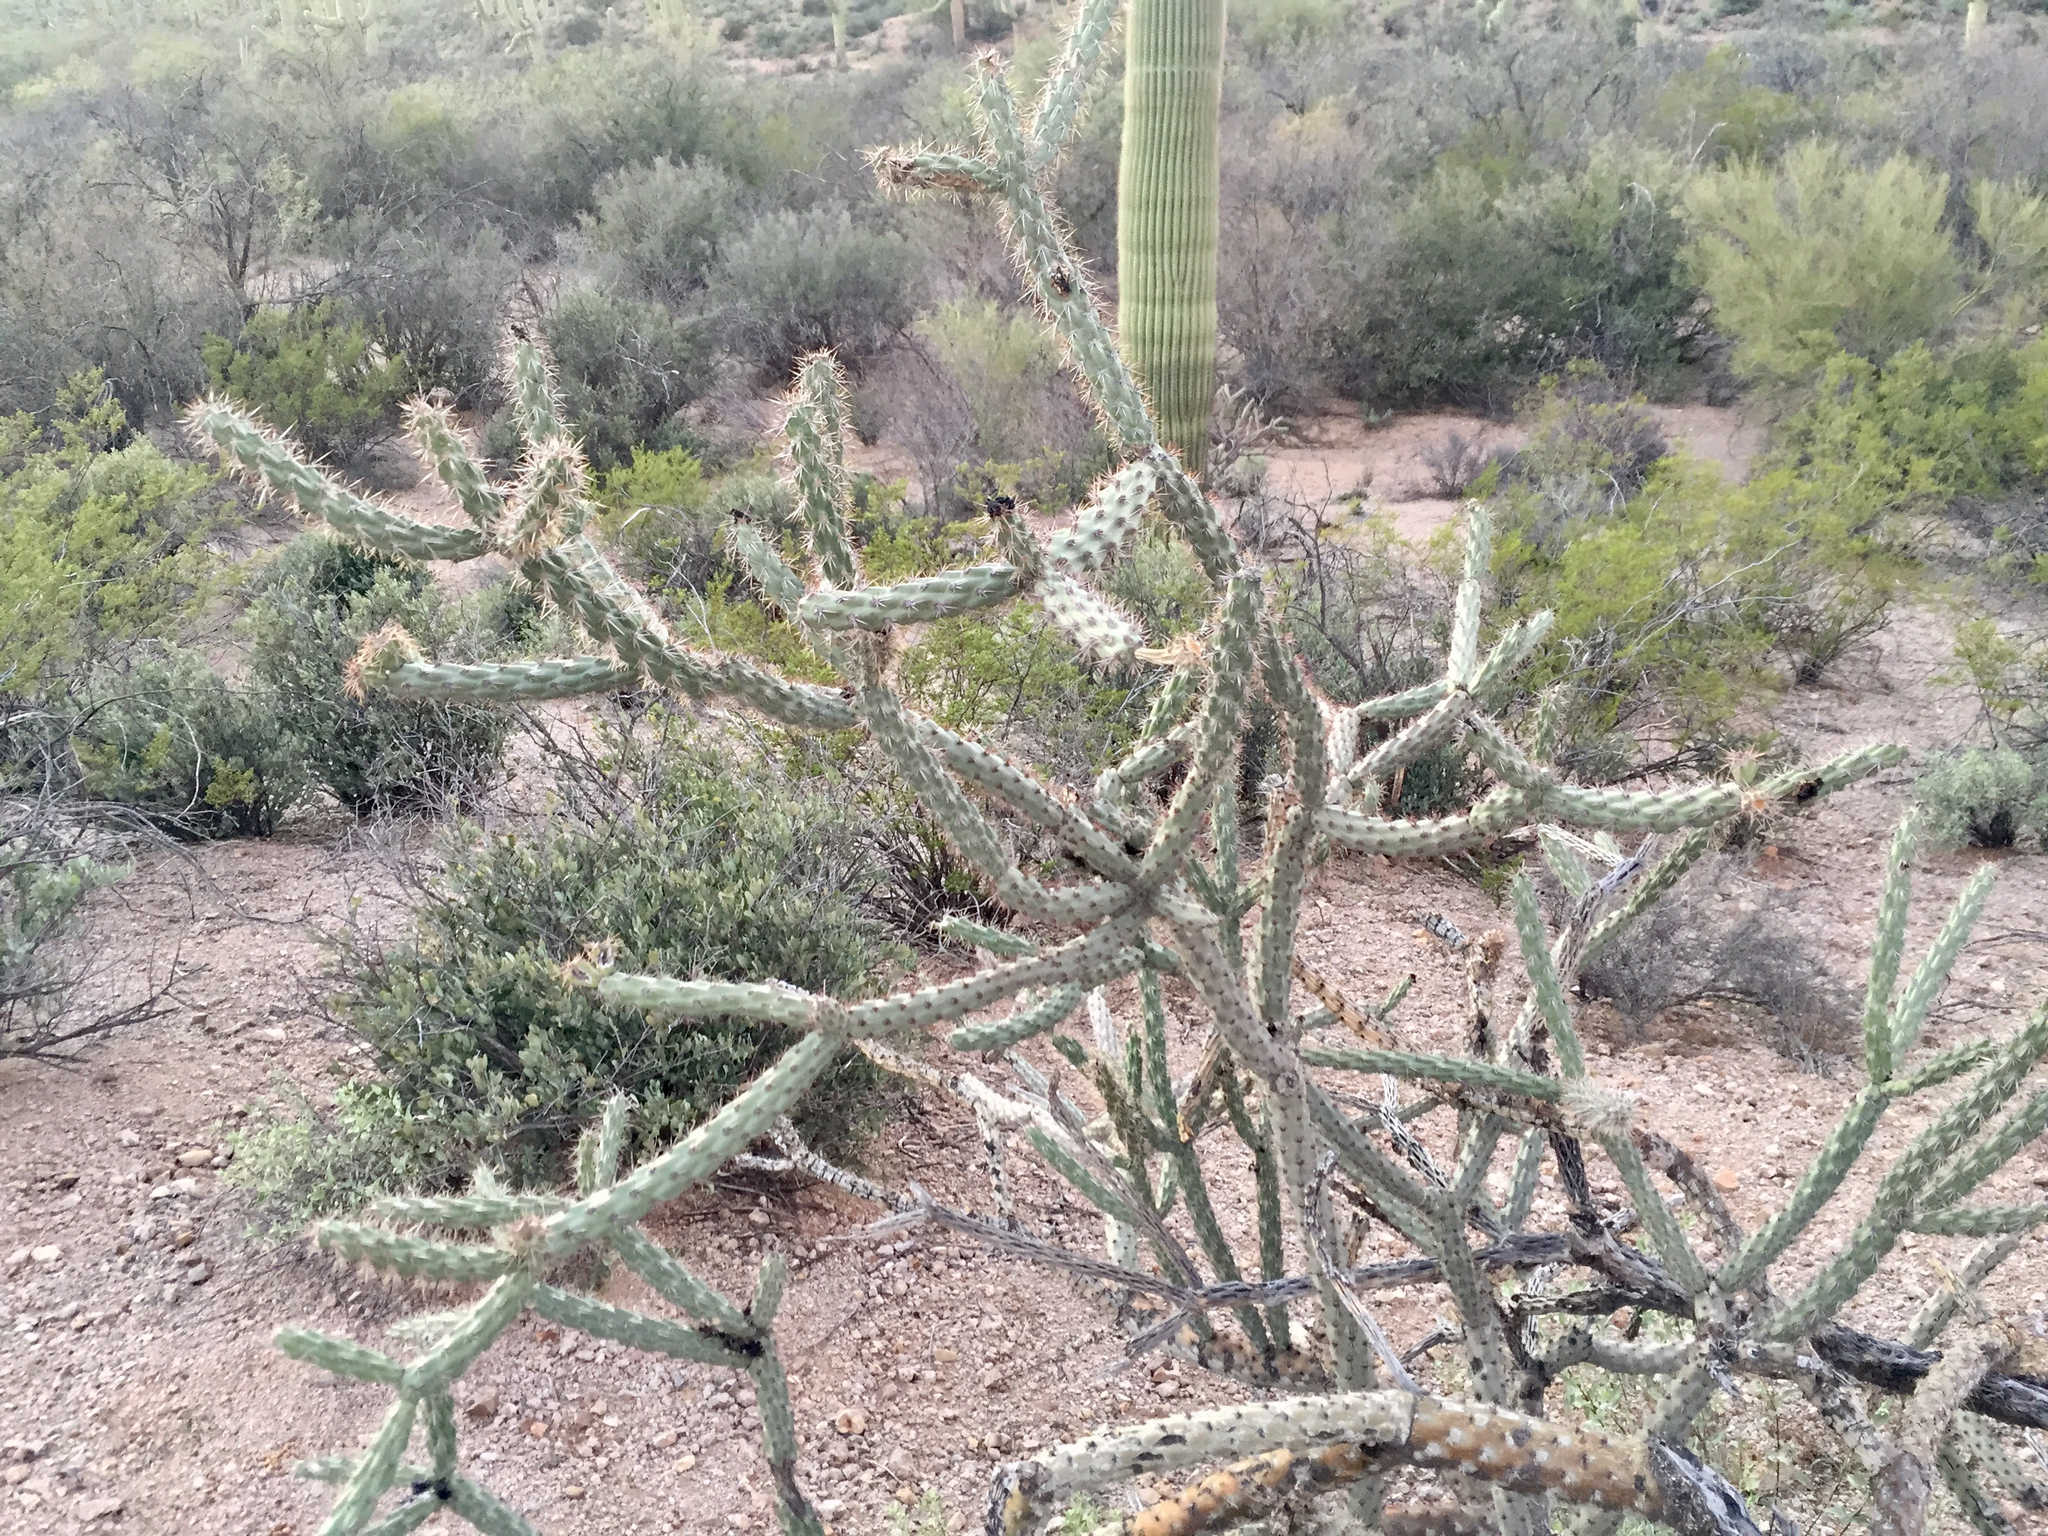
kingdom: Plantae
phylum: Tracheophyta
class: Magnoliopsida
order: Caryophyllales
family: Cactaceae
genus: Cylindropuntia
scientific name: Cylindropuntia acanthocarpa
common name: Buckhorn cholla
